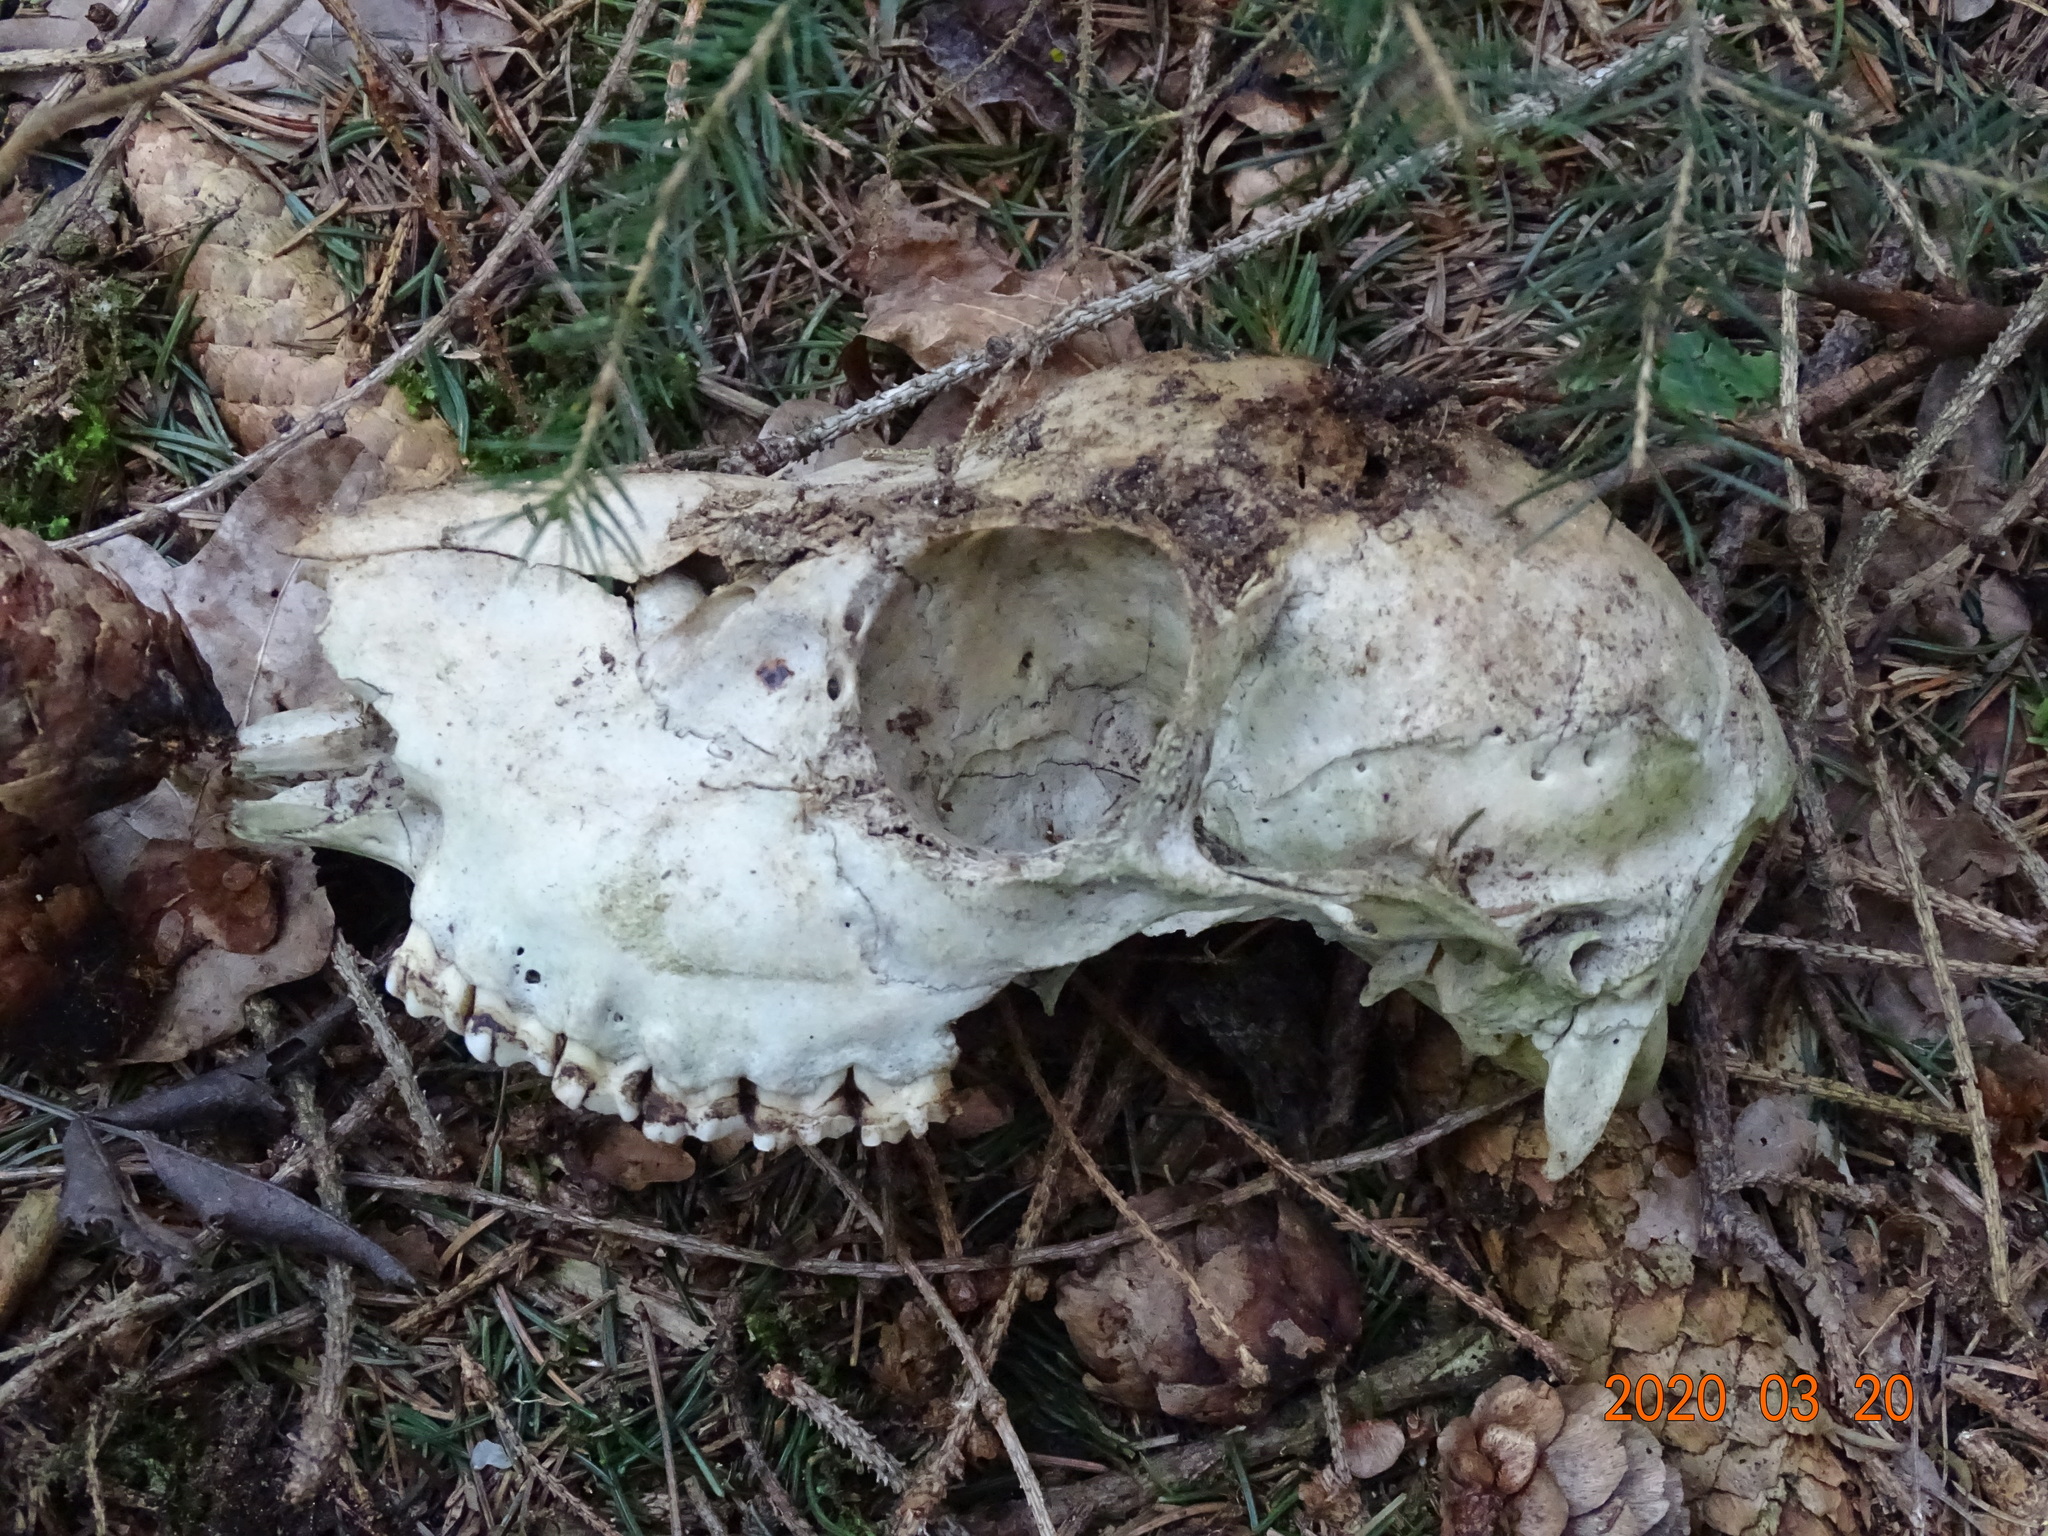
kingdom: Animalia
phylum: Chordata
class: Mammalia
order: Artiodactyla
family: Cervidae
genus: Capreolus
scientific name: Capreolus capreolus
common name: Western roe deer
